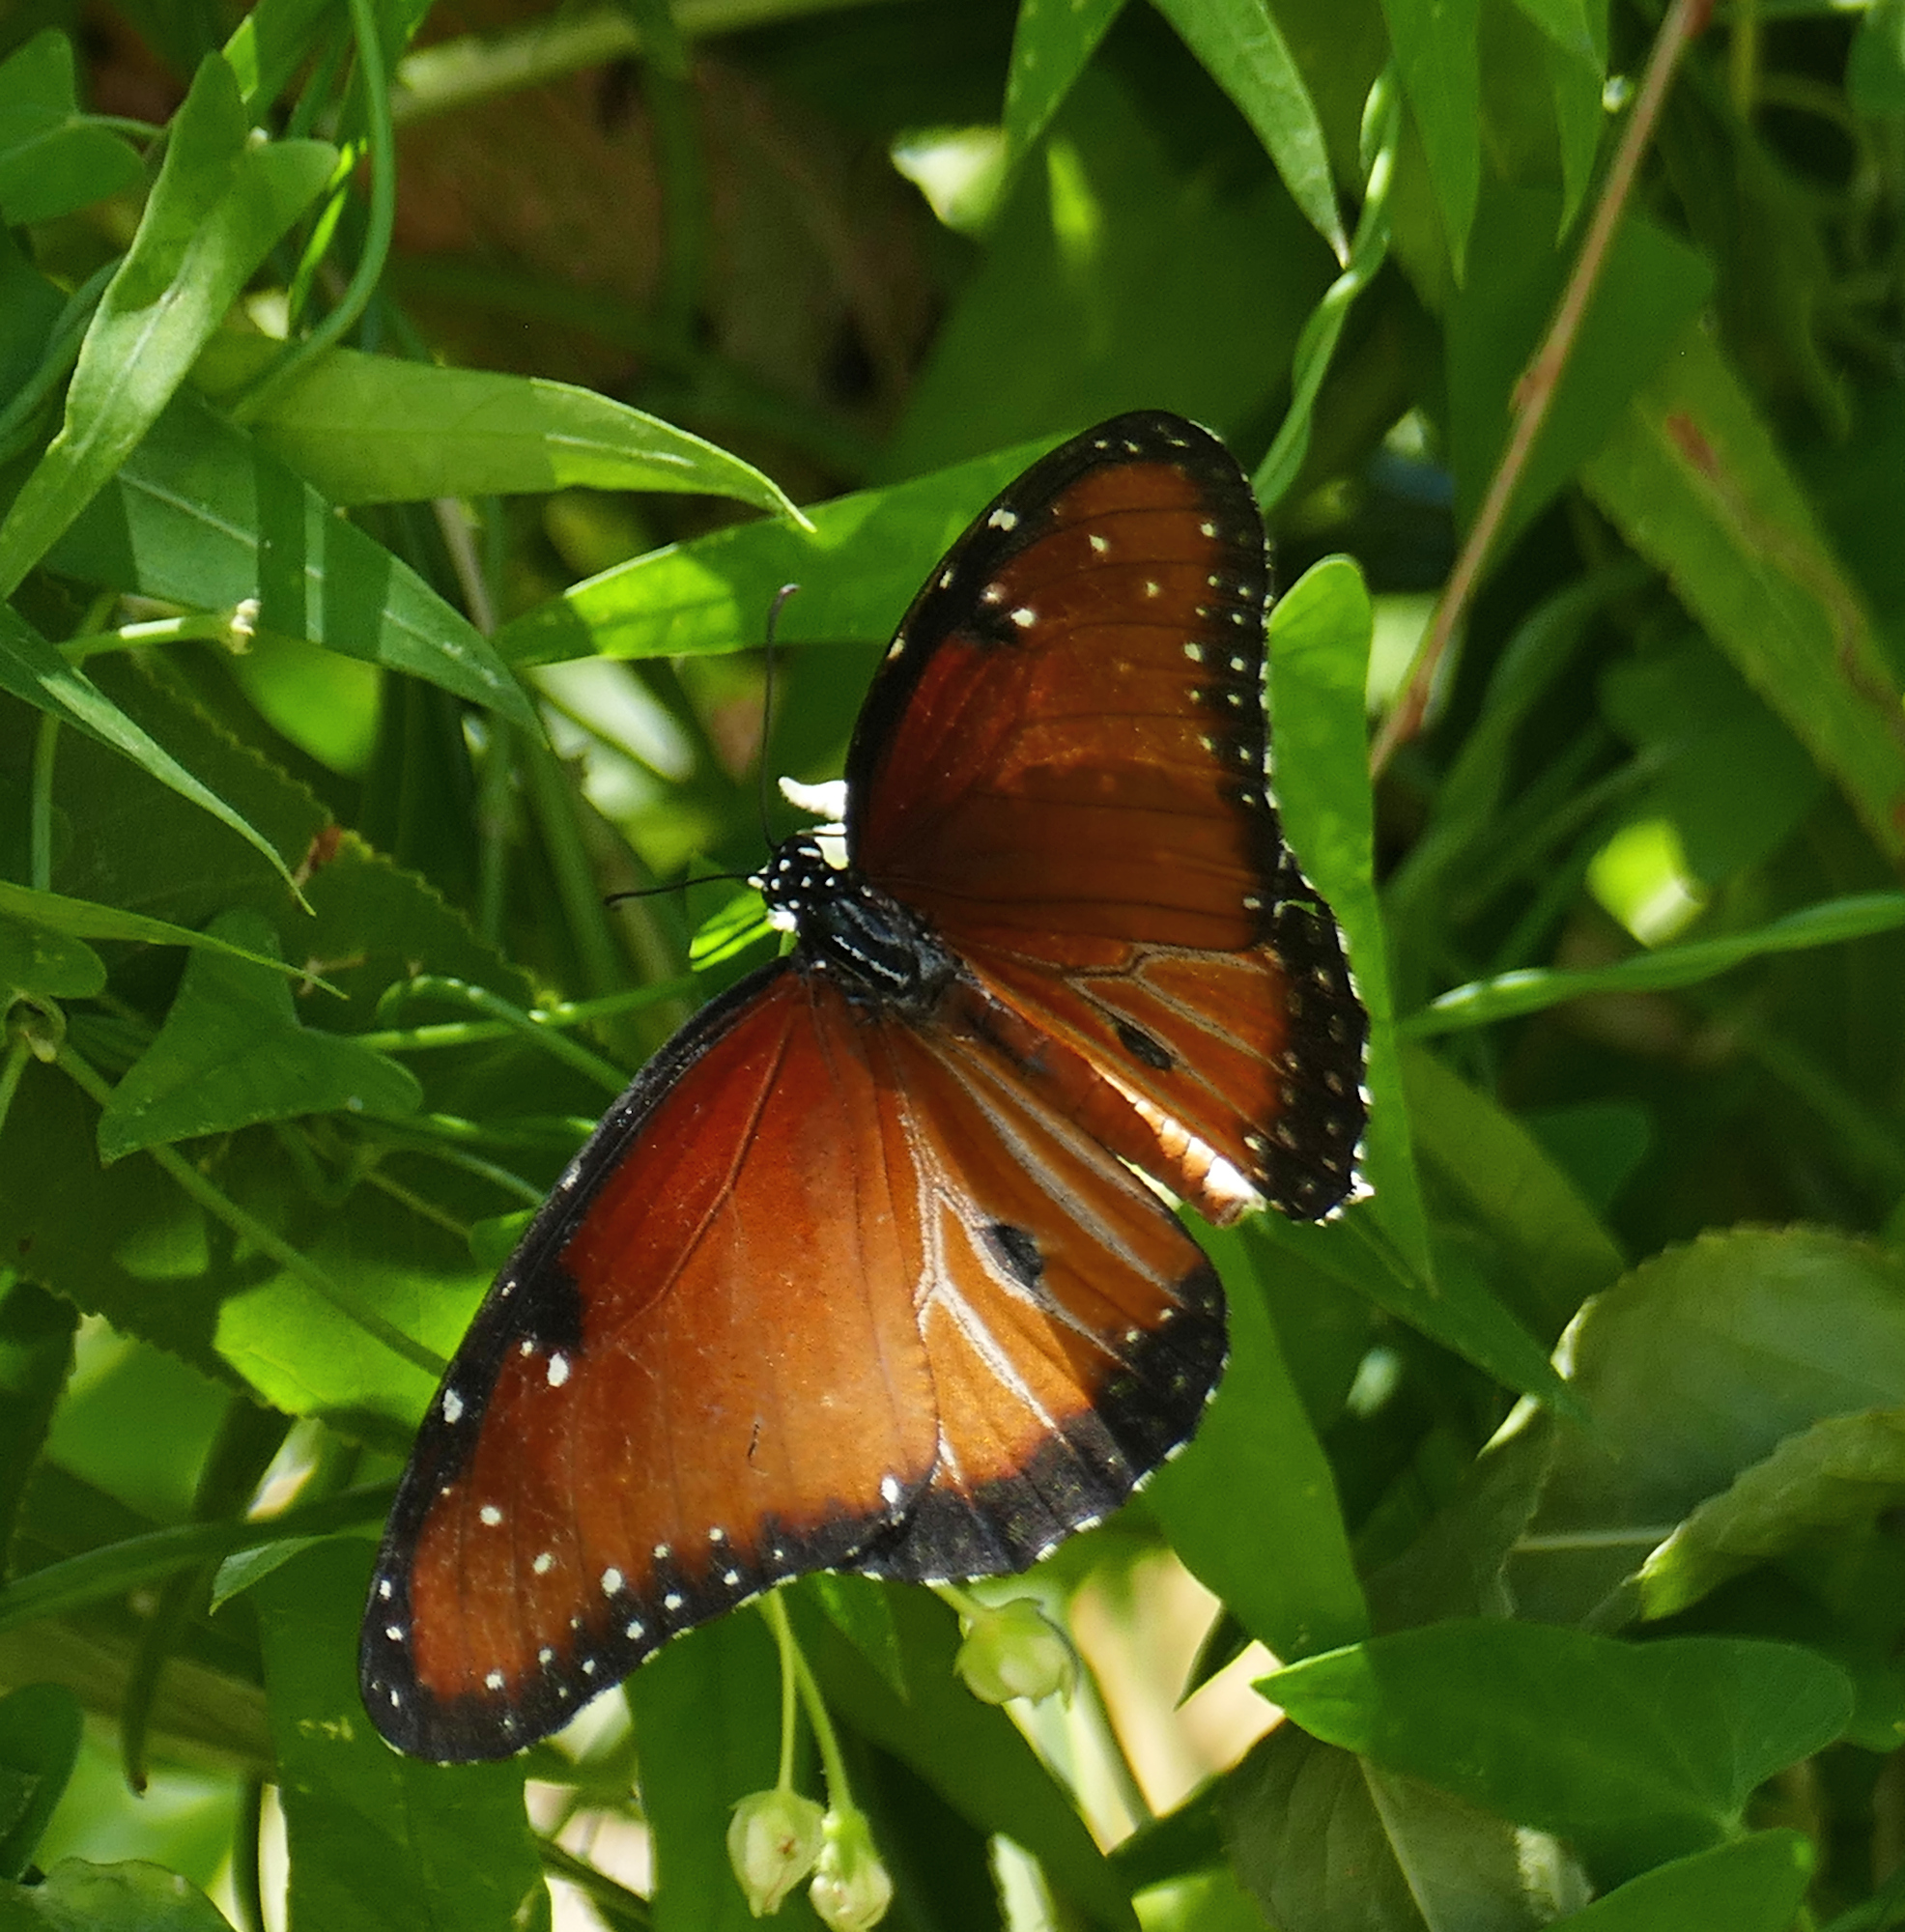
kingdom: Animalia
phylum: Arthropoda
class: Insecta
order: Lepidoptera
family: Nymphalidae
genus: Danaus
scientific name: Danaus gilippus
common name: Queen
